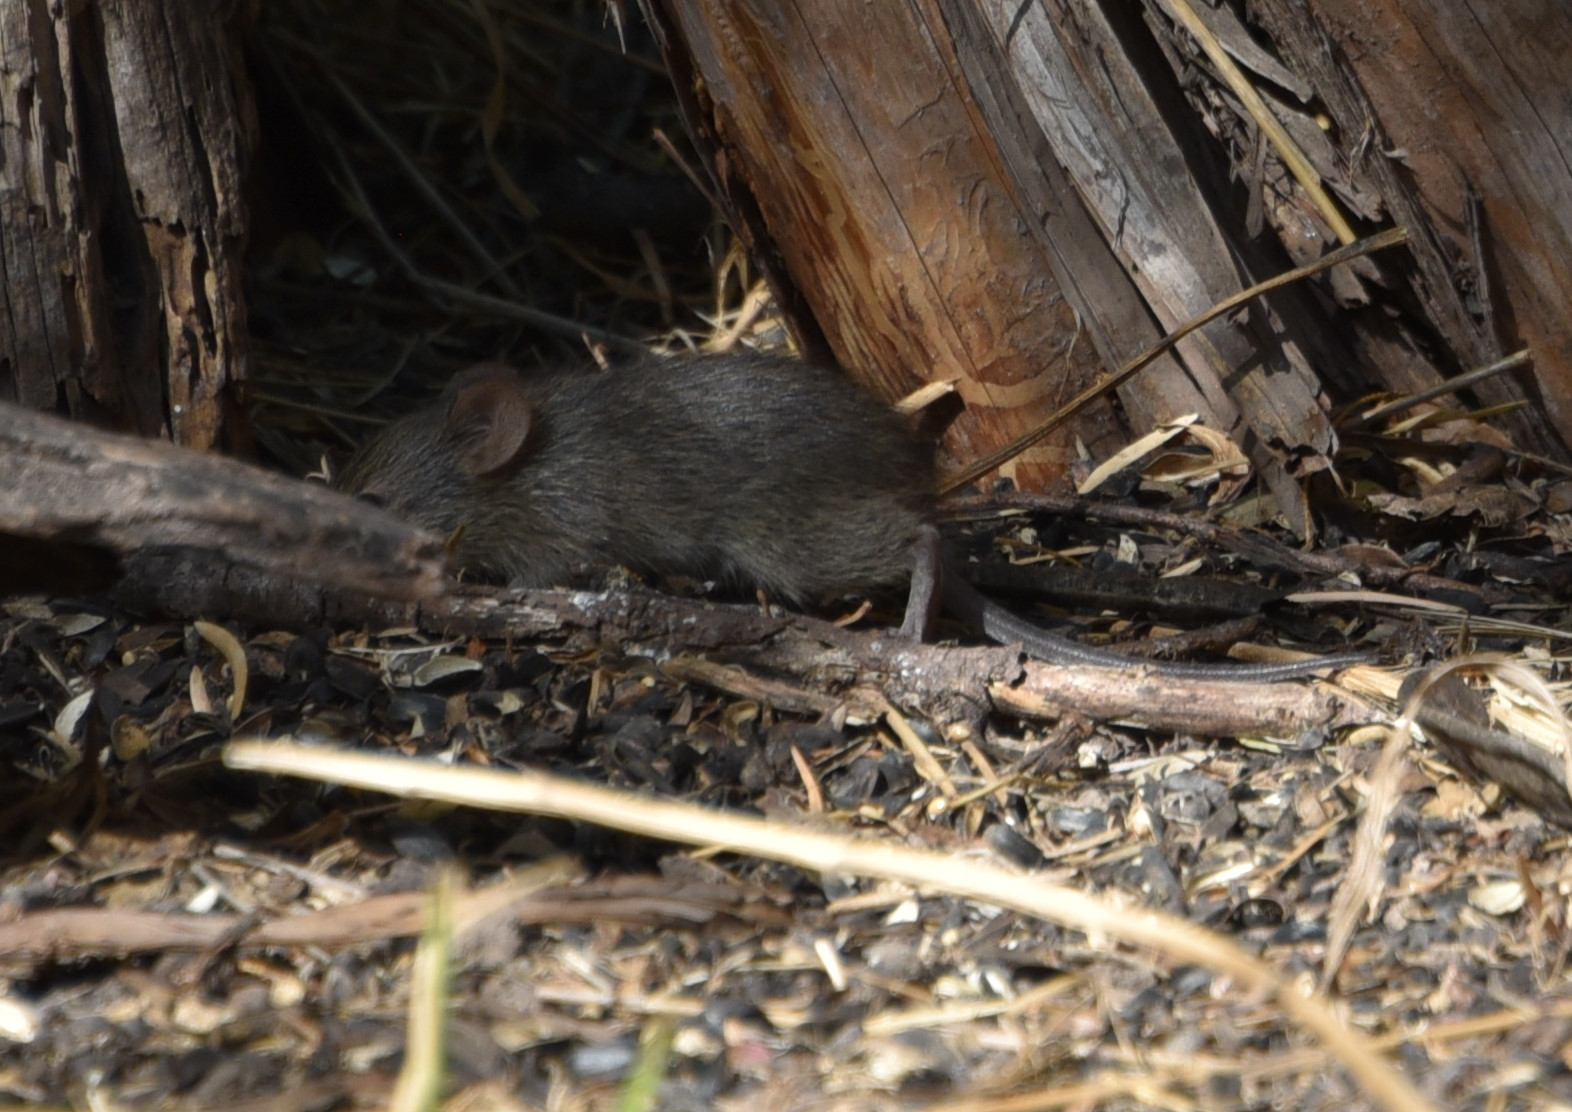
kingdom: Animalia
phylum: Chordata
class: Mammalia
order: Rodentia
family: Muridae
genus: Mus
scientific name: Mus musculus
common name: House mouse
